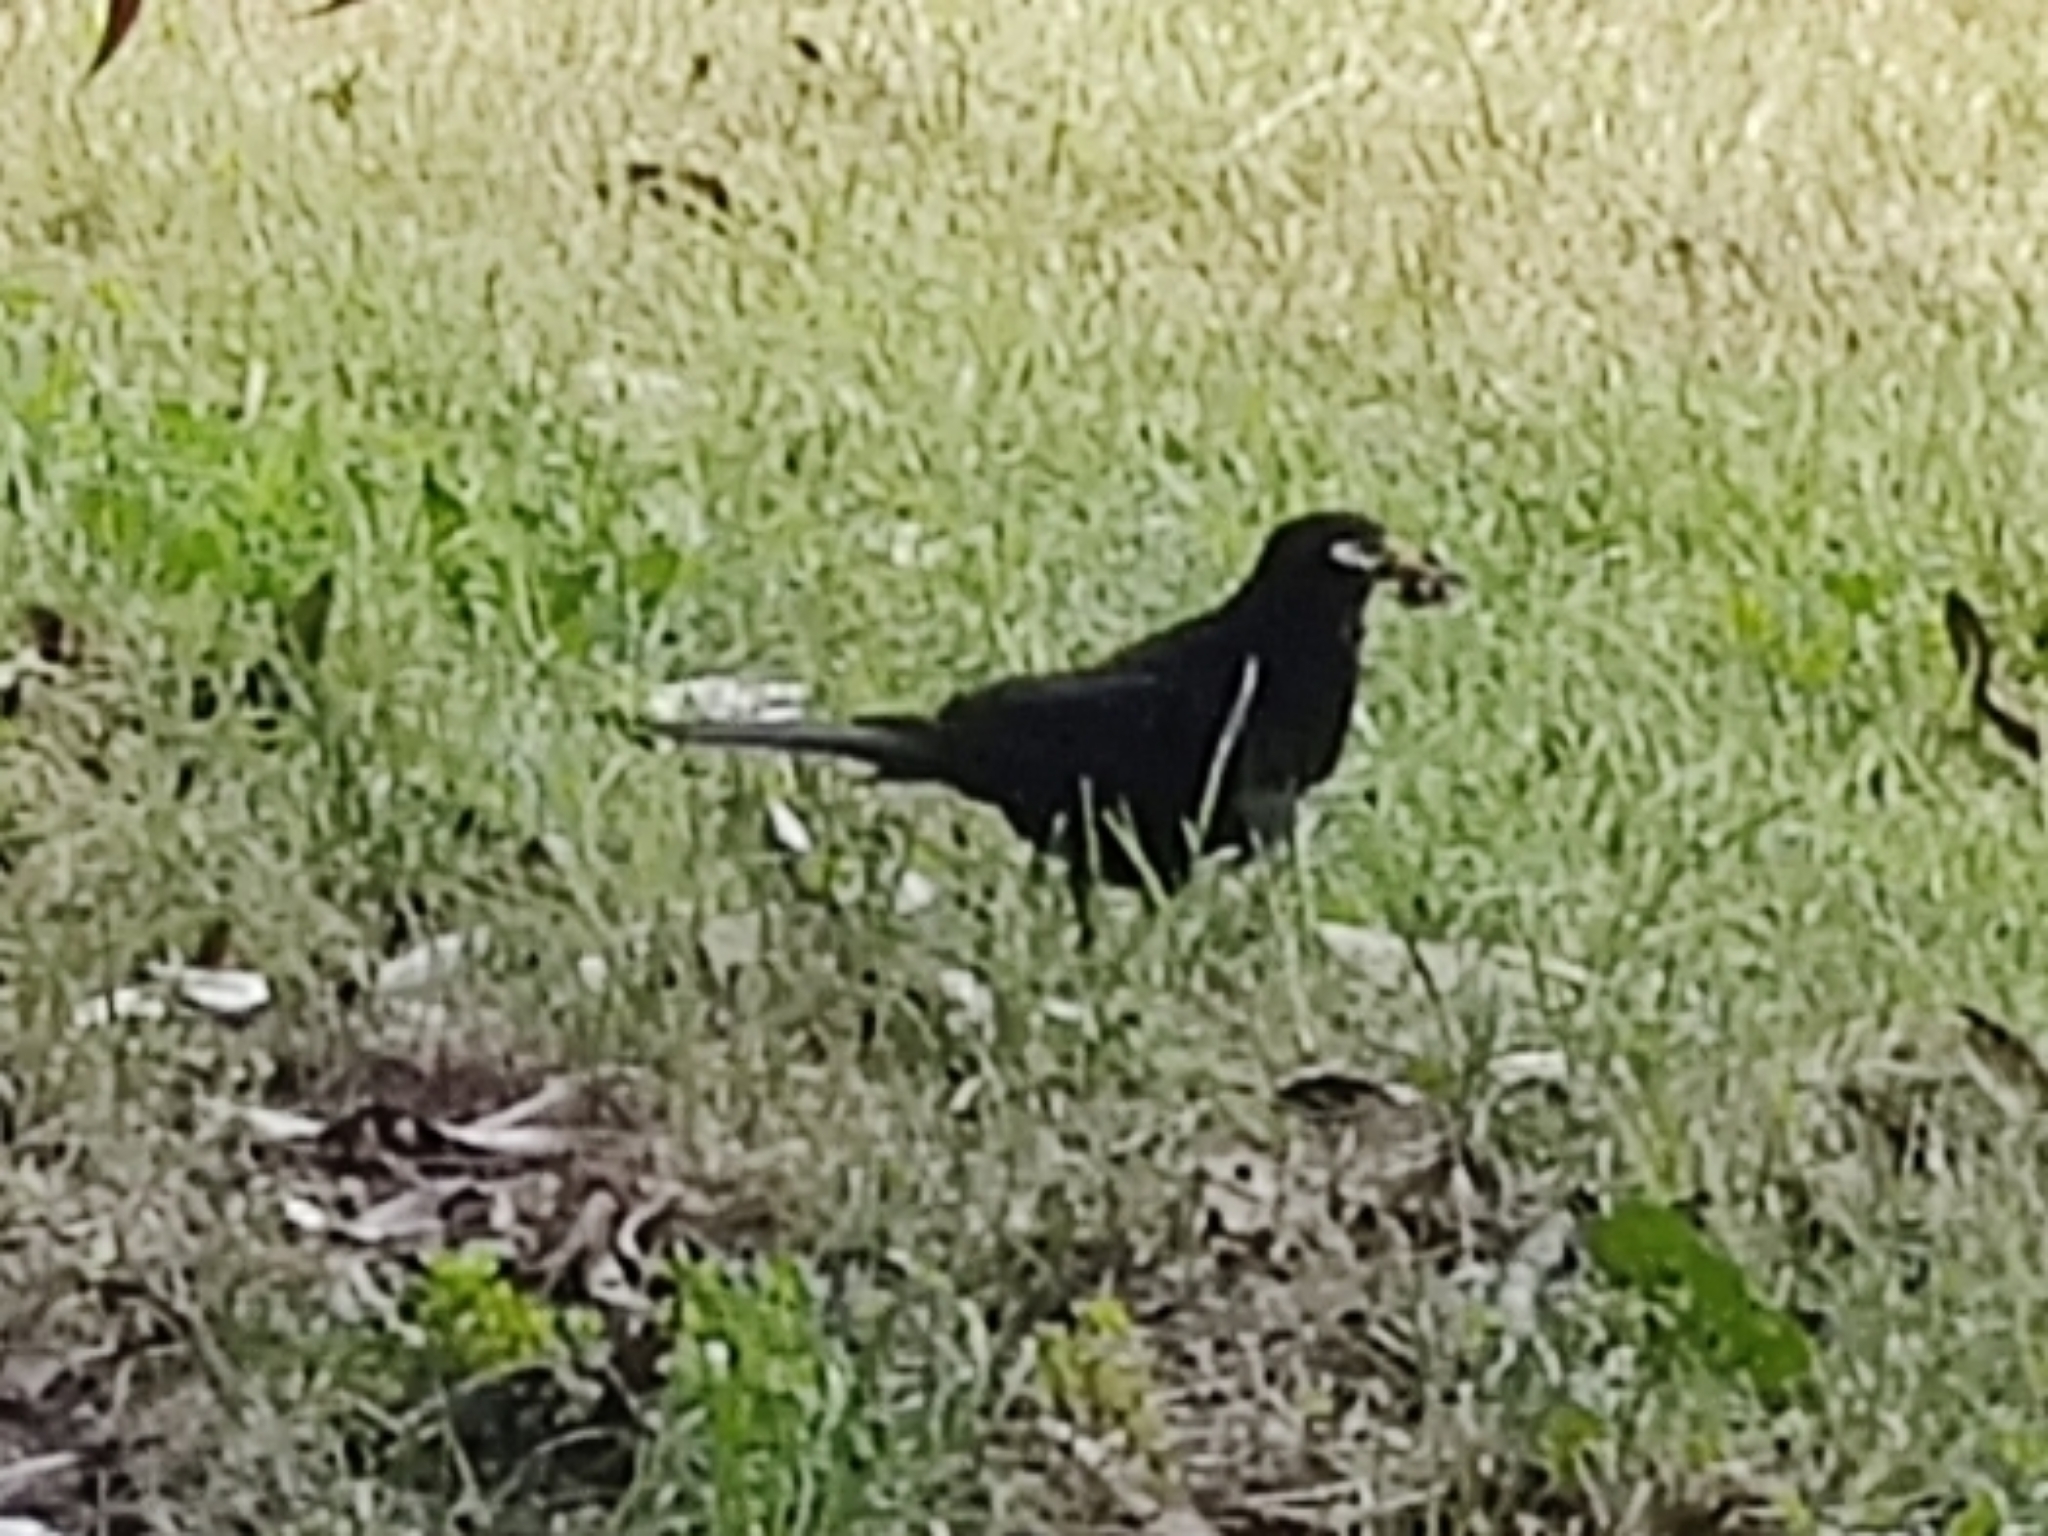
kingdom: Animalia
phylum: Chordata
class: Aves
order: Passeriformes
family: Turdidae
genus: Turdus
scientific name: Turdus merula
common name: Common blackbird
